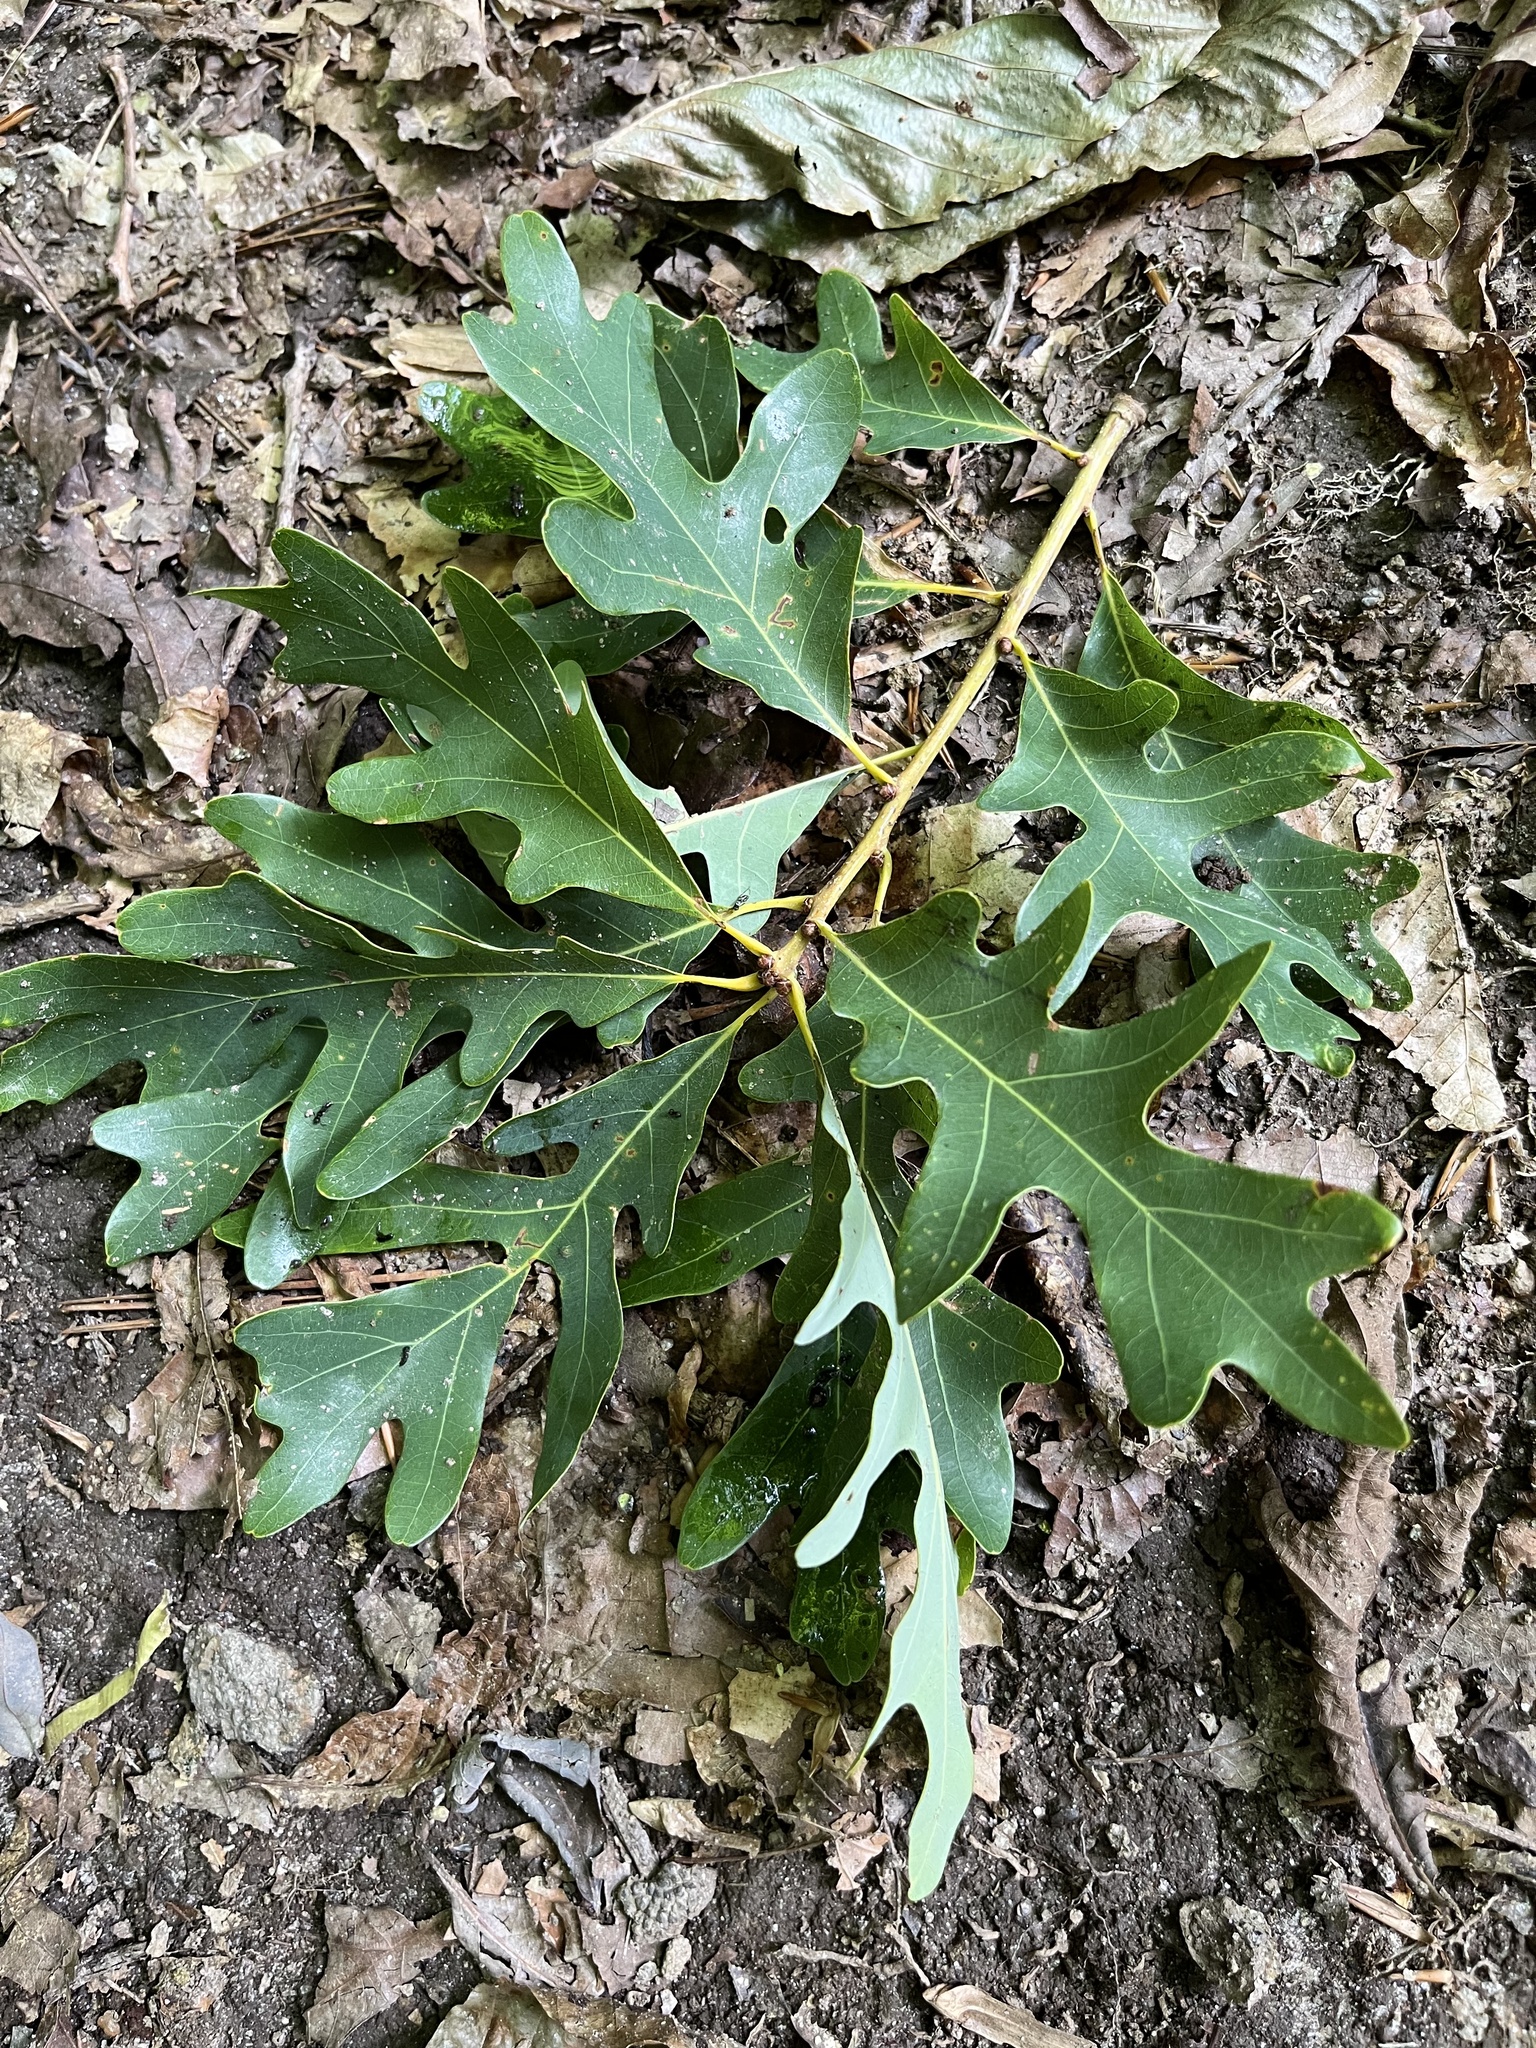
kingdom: Plantae
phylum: Tracheophyta
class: Magnoliopsida
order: Fagales
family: Fagaceae
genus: Quercus
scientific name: Quercus alba
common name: White oak
